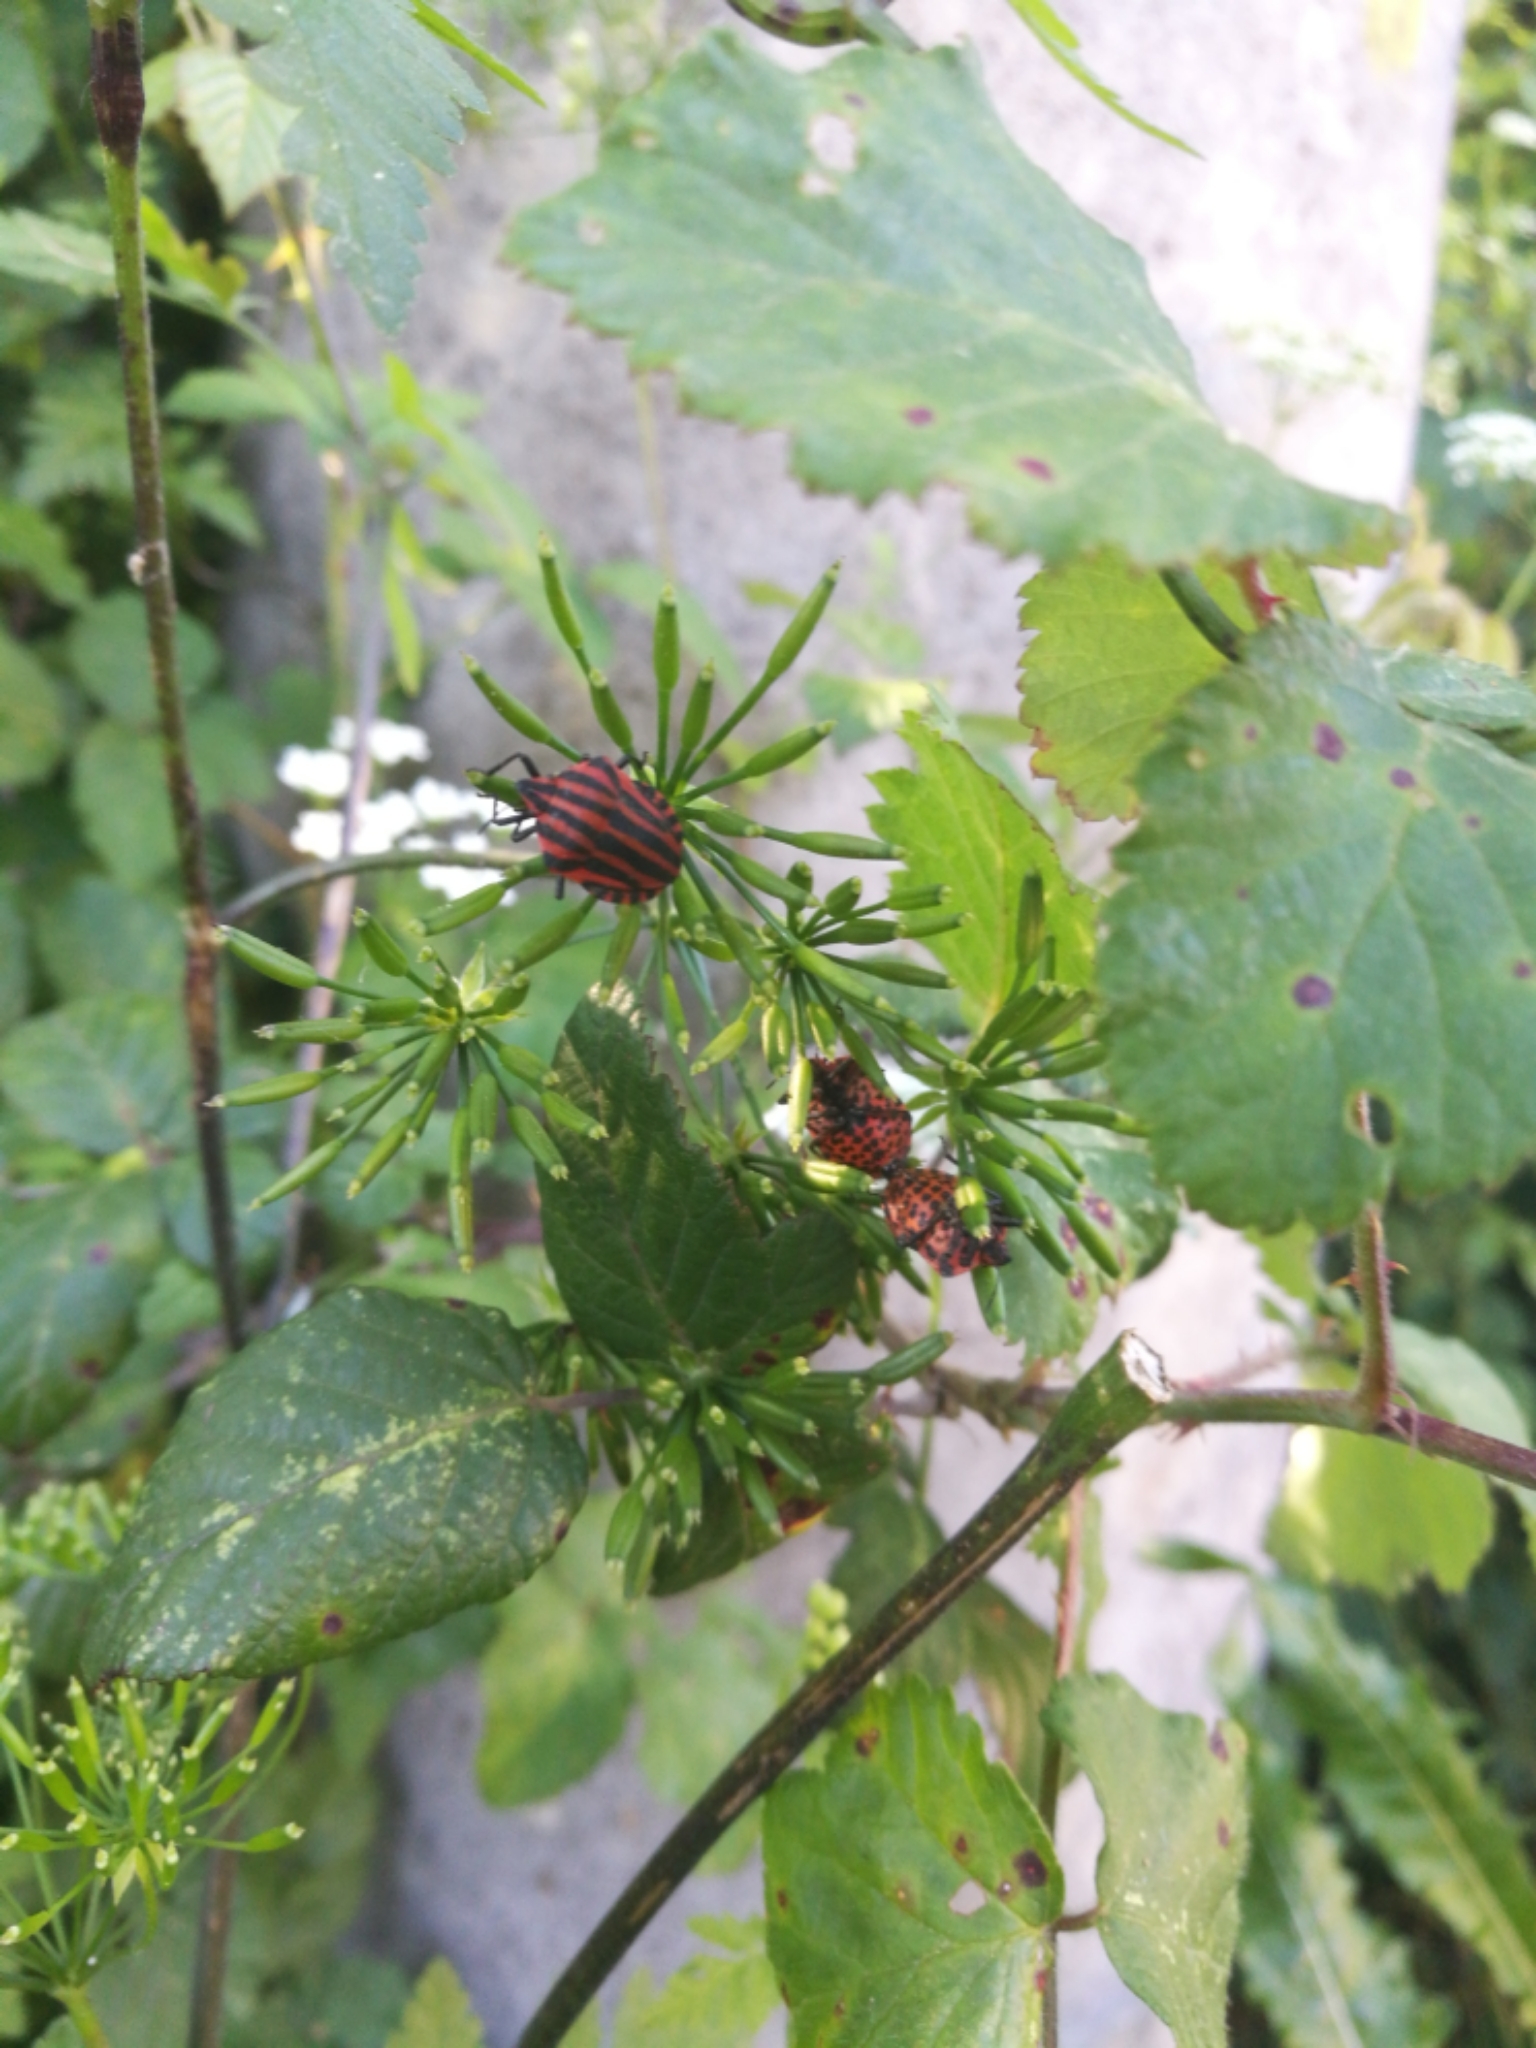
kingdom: Animalia
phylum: Arthropoda
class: Insecta
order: Hemiptera
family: Pentatomidae
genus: Graphosoma
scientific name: Graphosoma italicum
